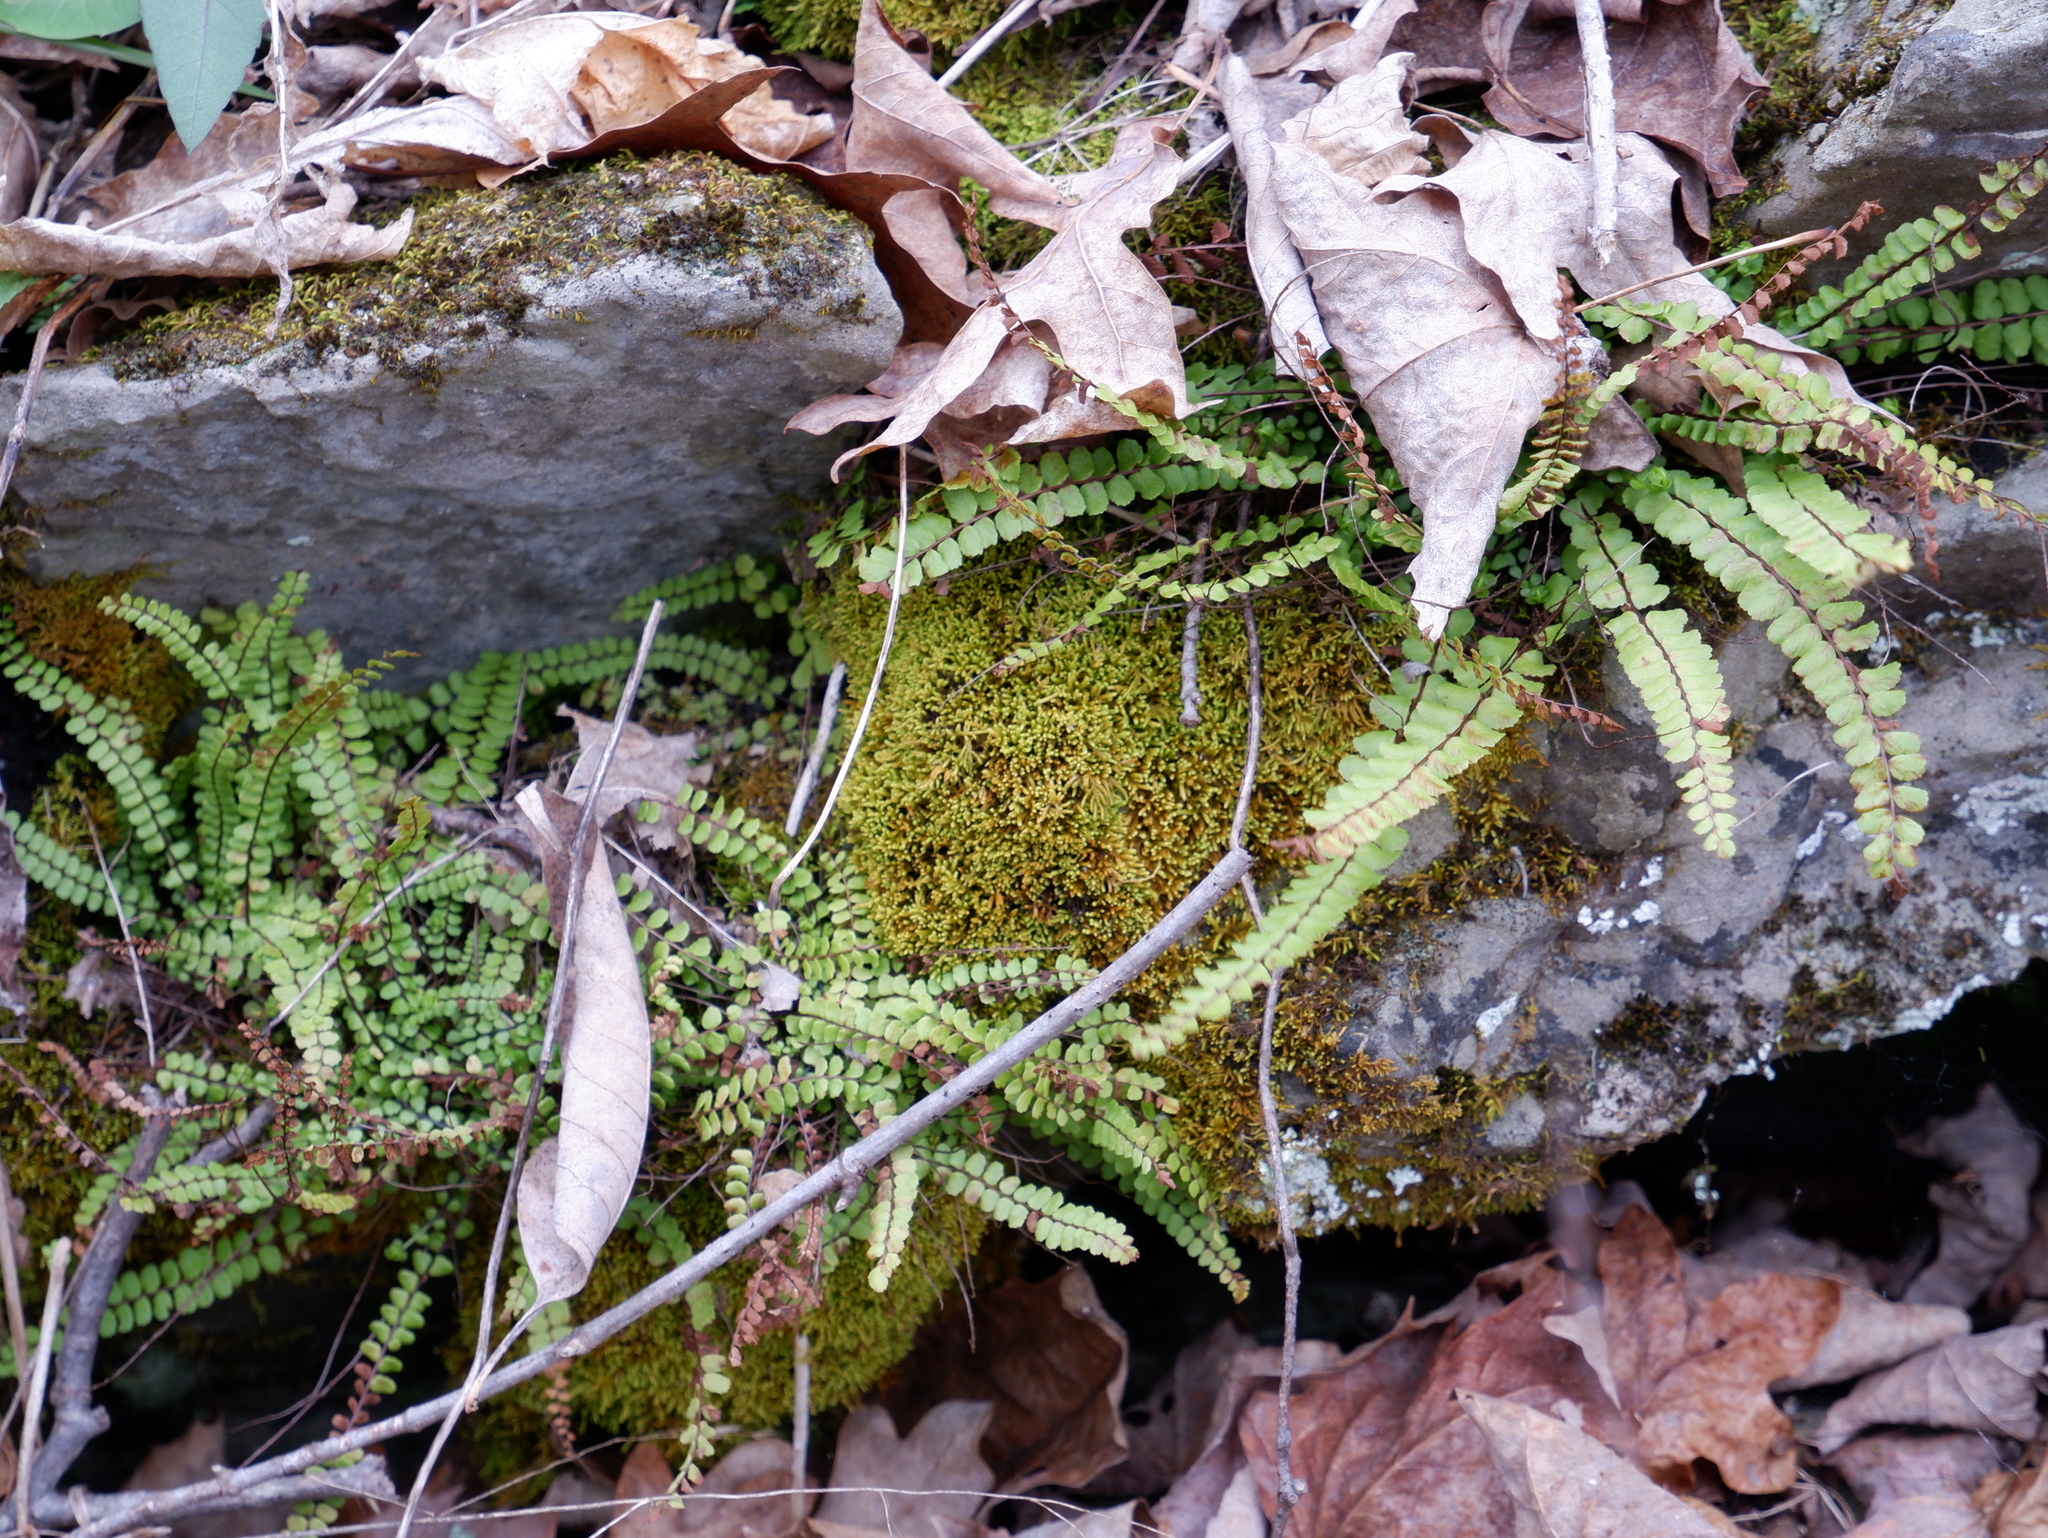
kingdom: Plantae
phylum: Tracheophyta
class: Polypodiopsida
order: Polypodiales
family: Aspleniaceae
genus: Asplenium
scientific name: Asplenium trichomanes
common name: Maidenhair spleenwort
